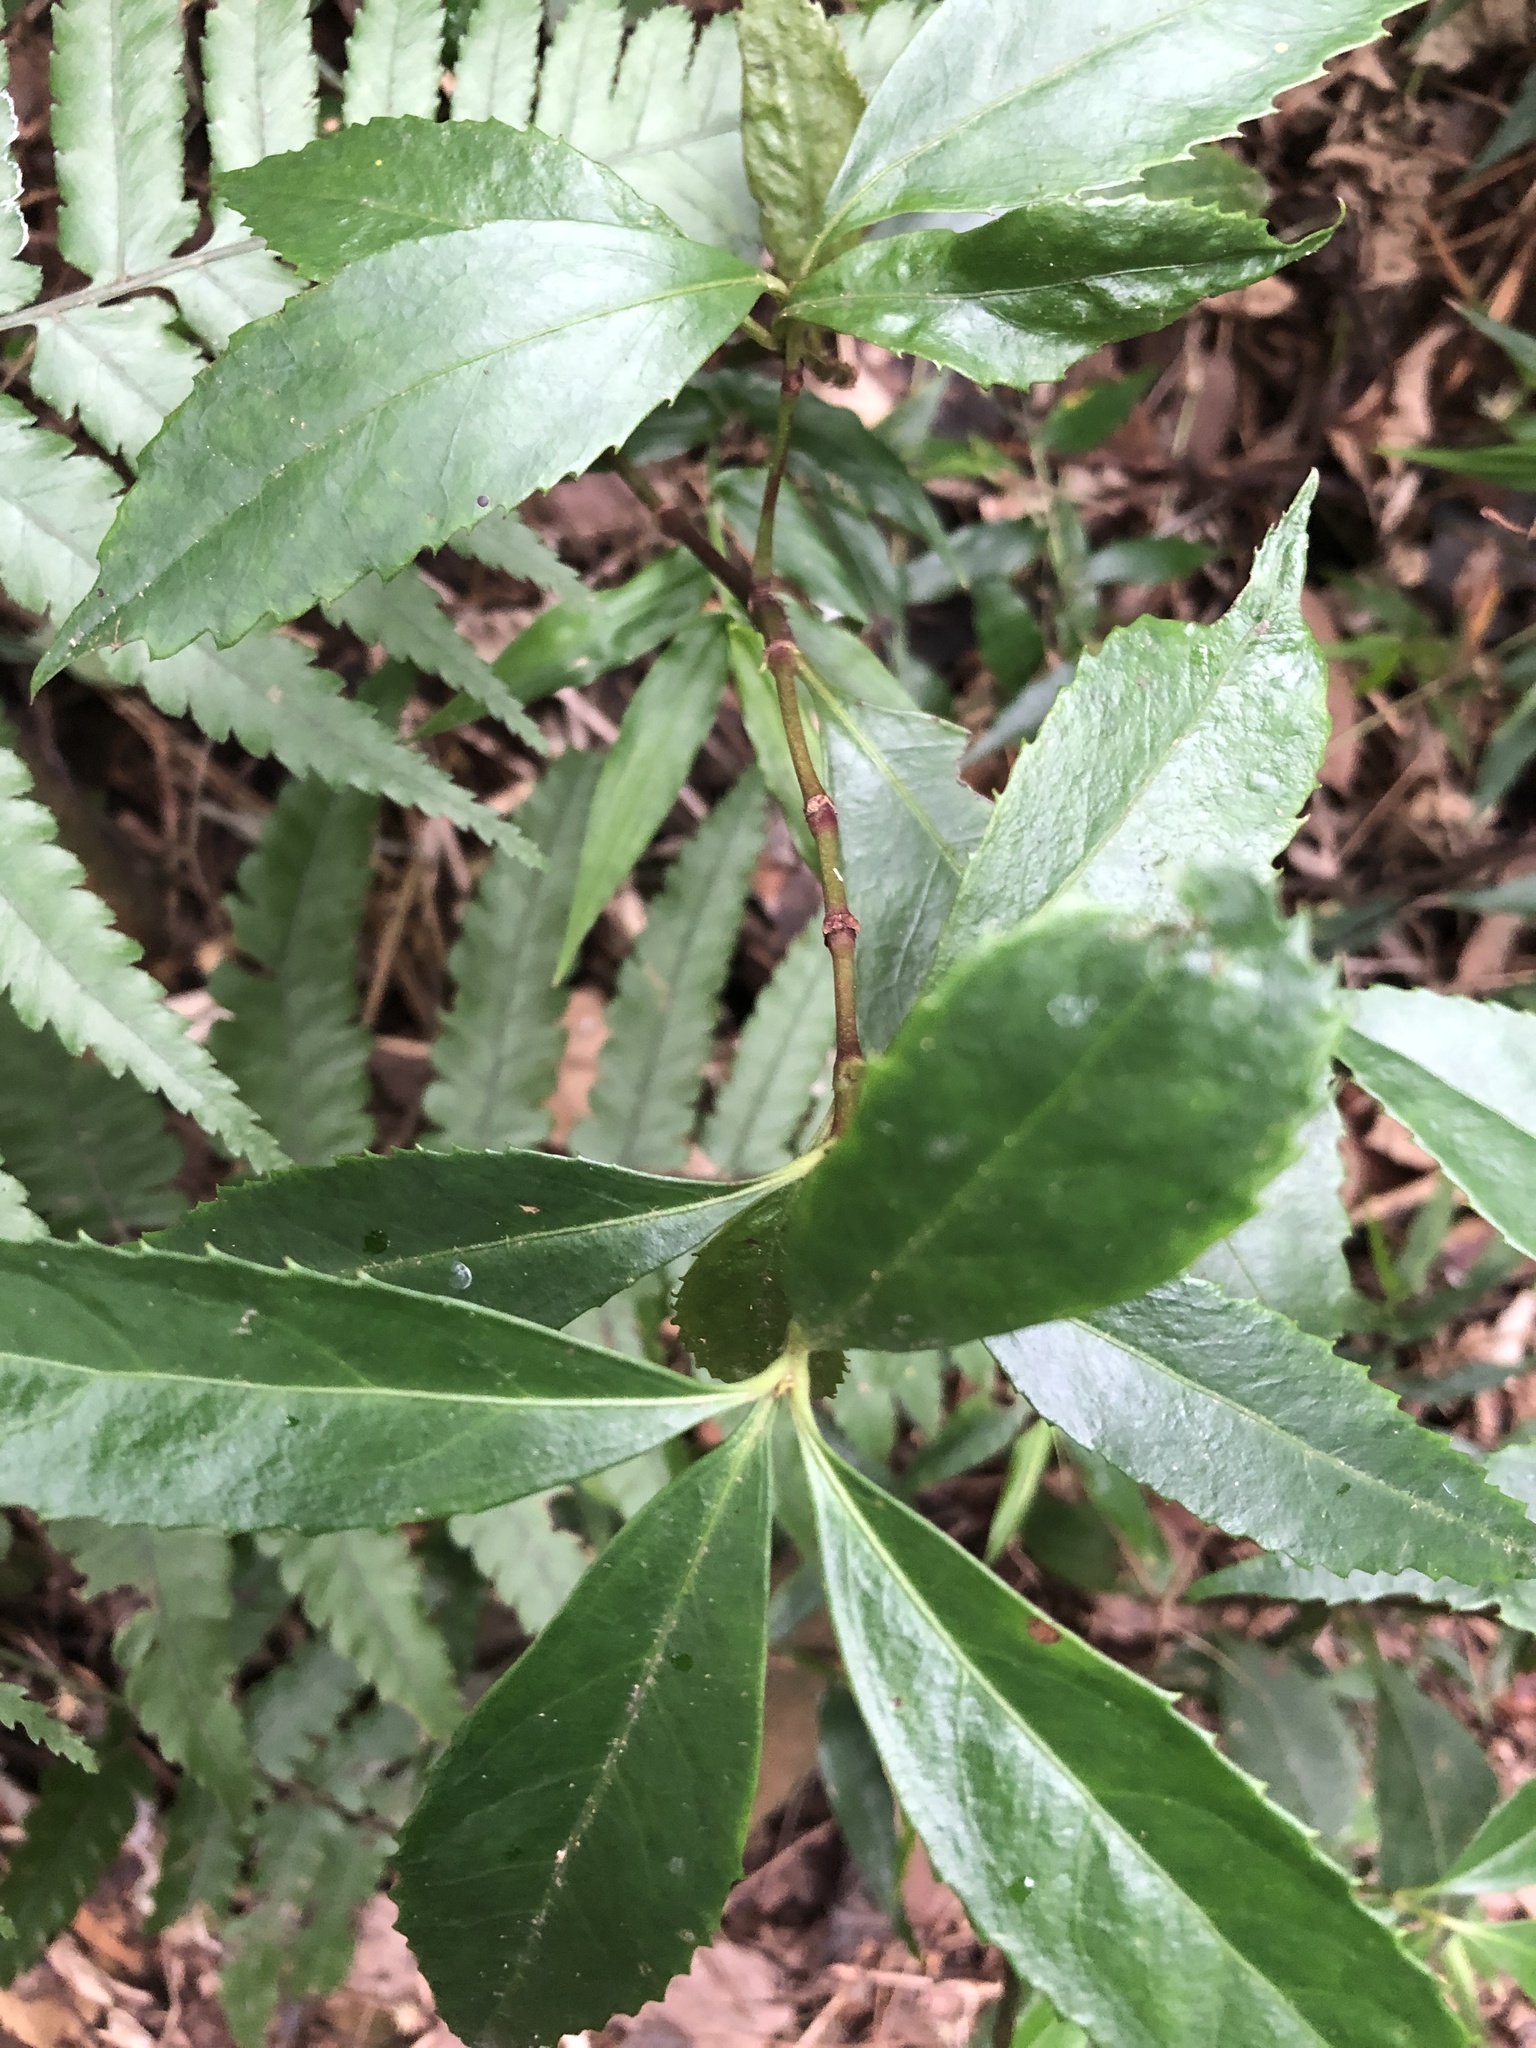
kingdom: Plantae
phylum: Tracheophyta
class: Magnoliopsida
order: Chloranthales
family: Chloranthaceae
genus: Sarcandra
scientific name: Sarcandra glabra
